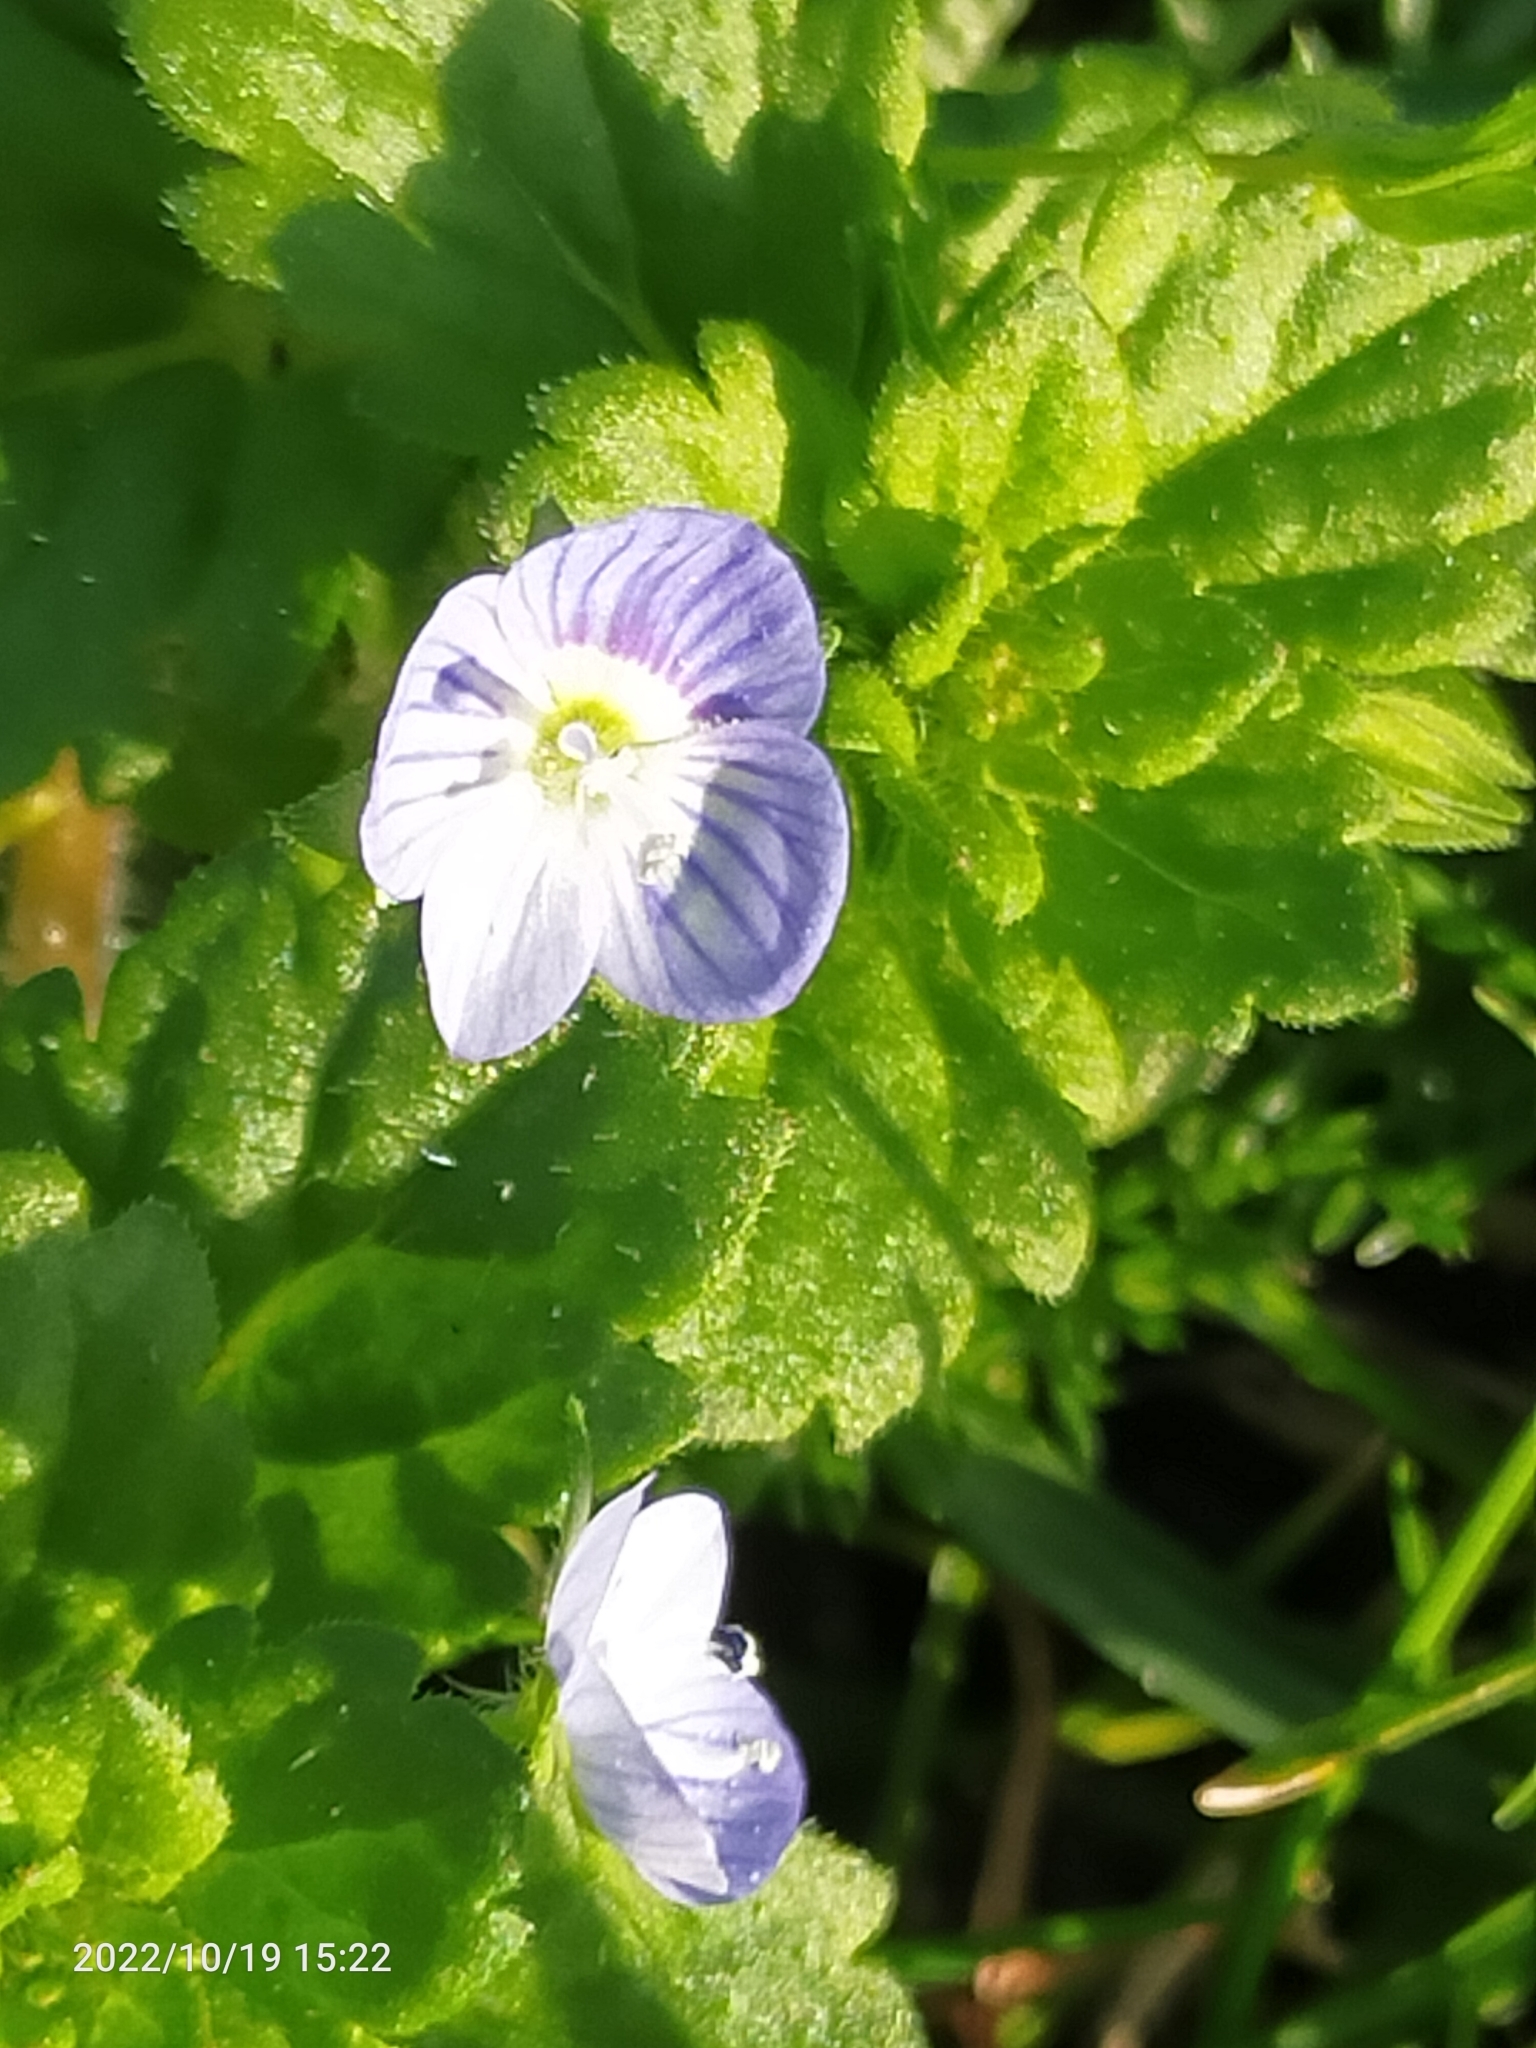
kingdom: Plantae
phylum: Tracheophyta
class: Magnoliopsida
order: Lamiales
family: Plantaginaceae
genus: Veronica
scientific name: Veronica persica
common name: Common field-speedwell
